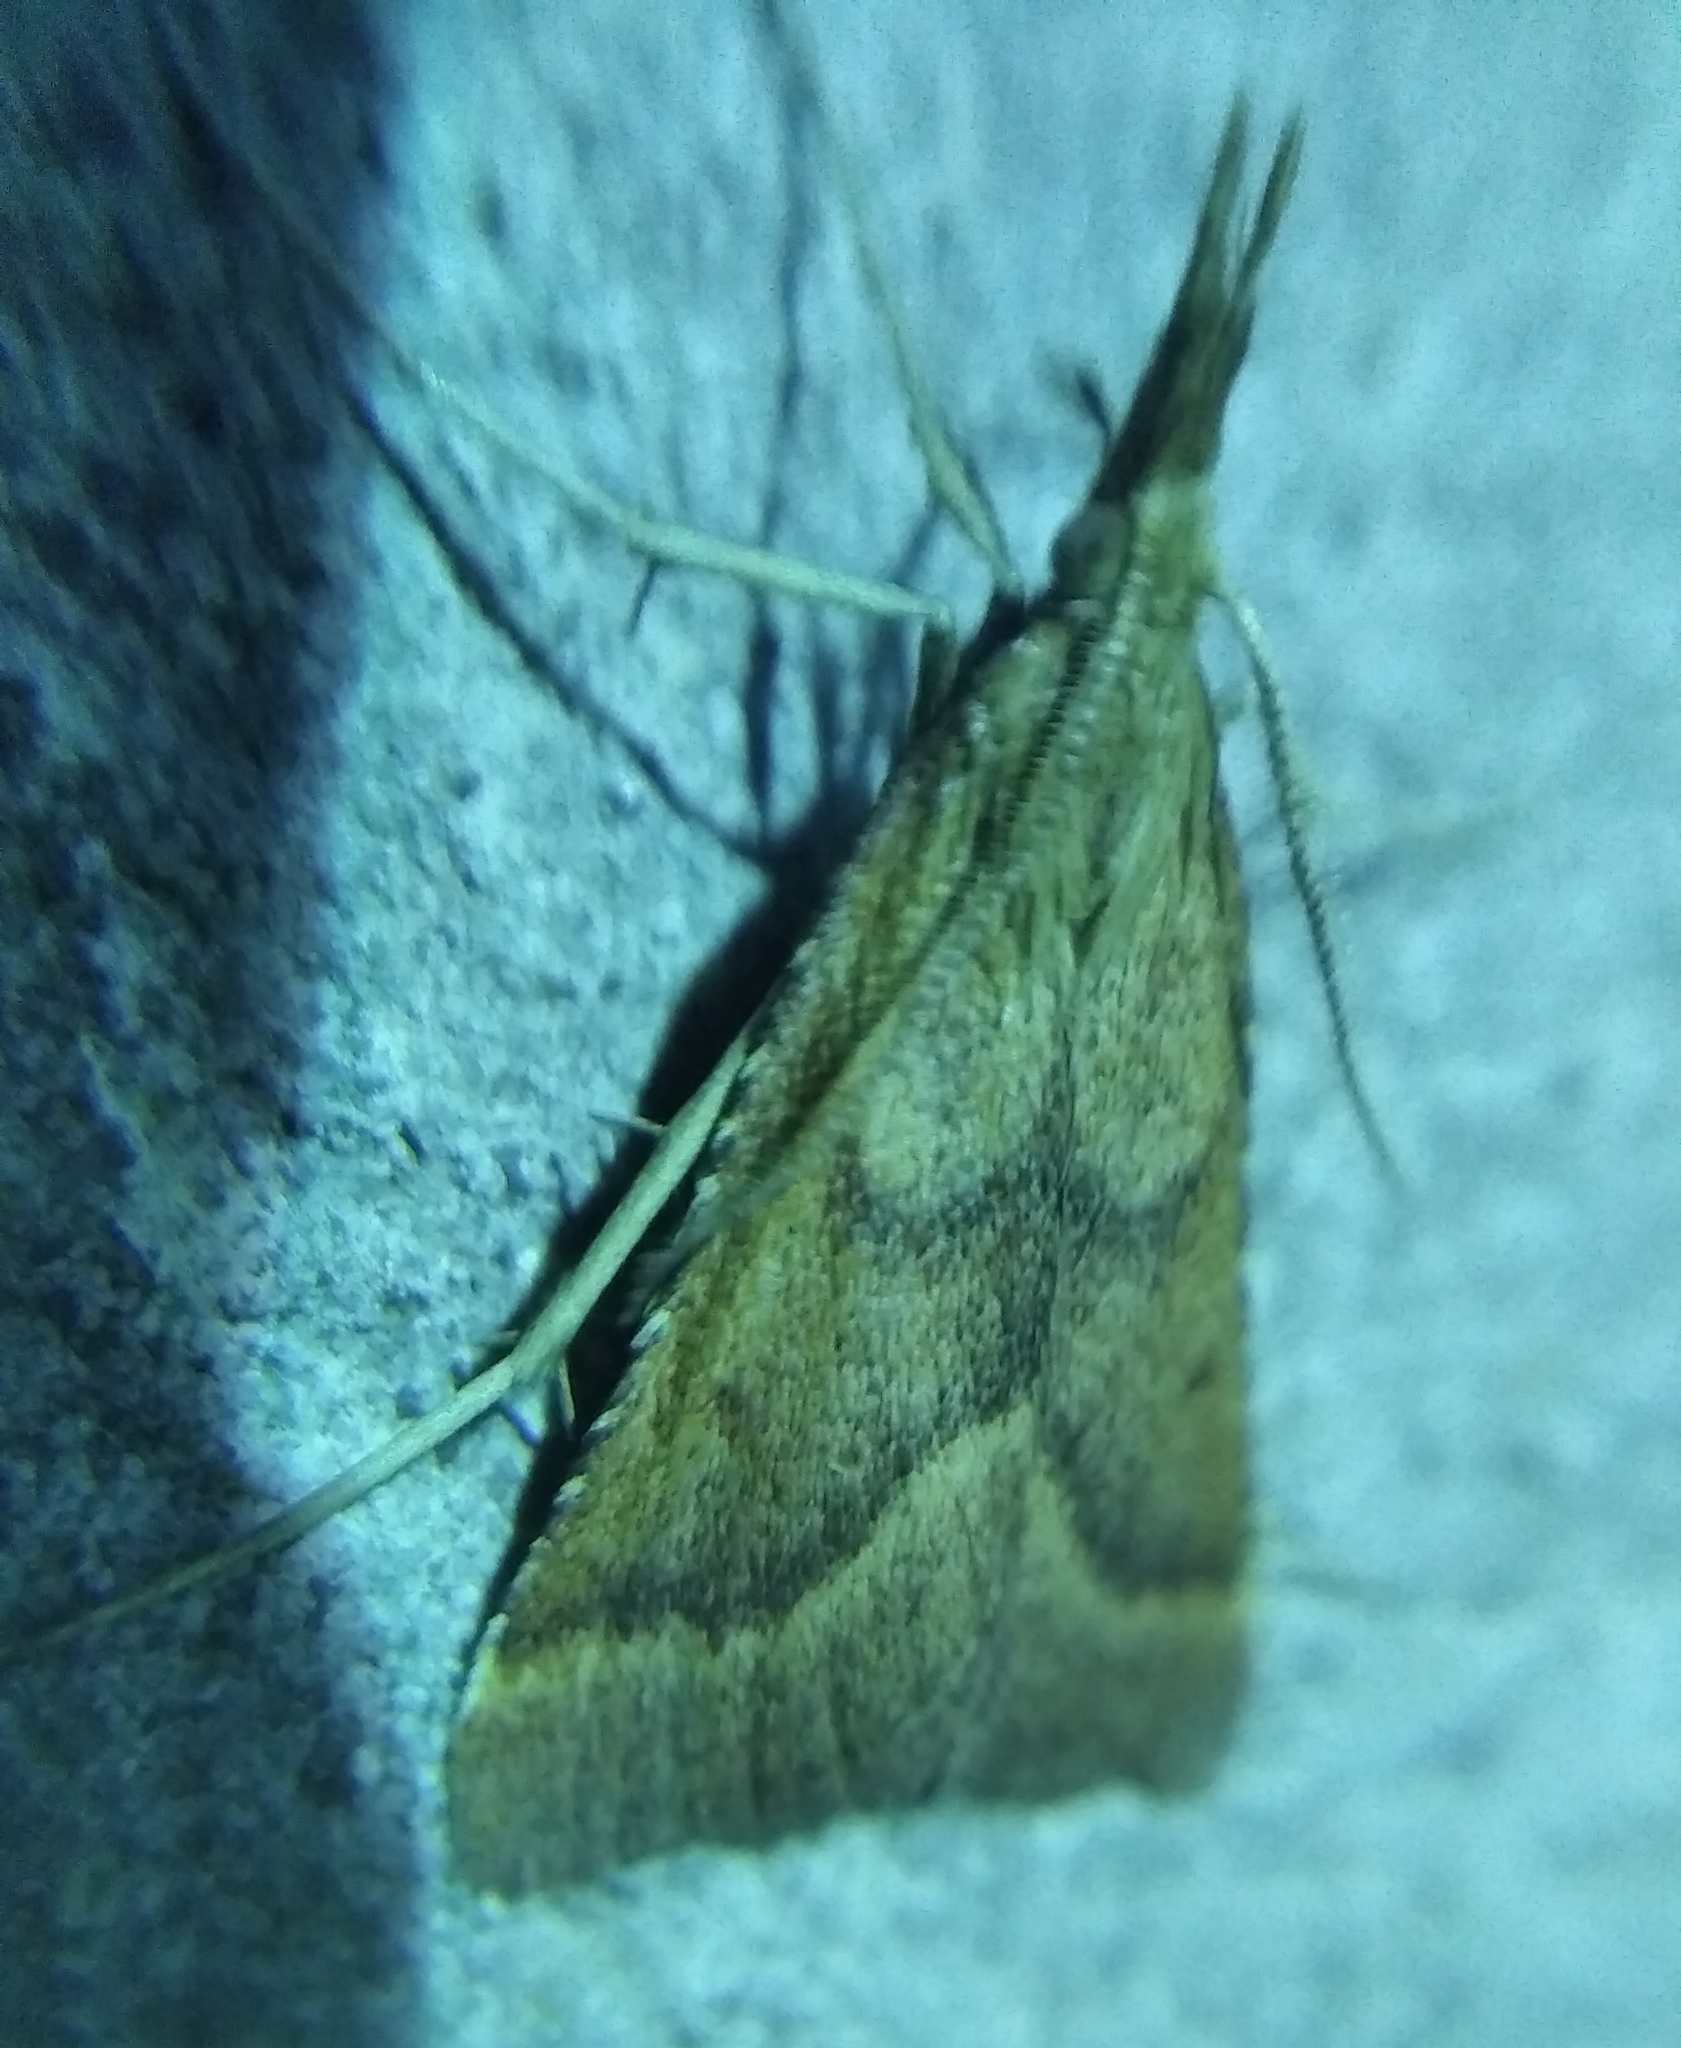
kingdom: Animalia
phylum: Arthropoda
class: Insecta
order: Lepidoptera
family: Pyralidae
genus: Synaphe
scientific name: Synaphe punctalis
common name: Long-legged tabby
